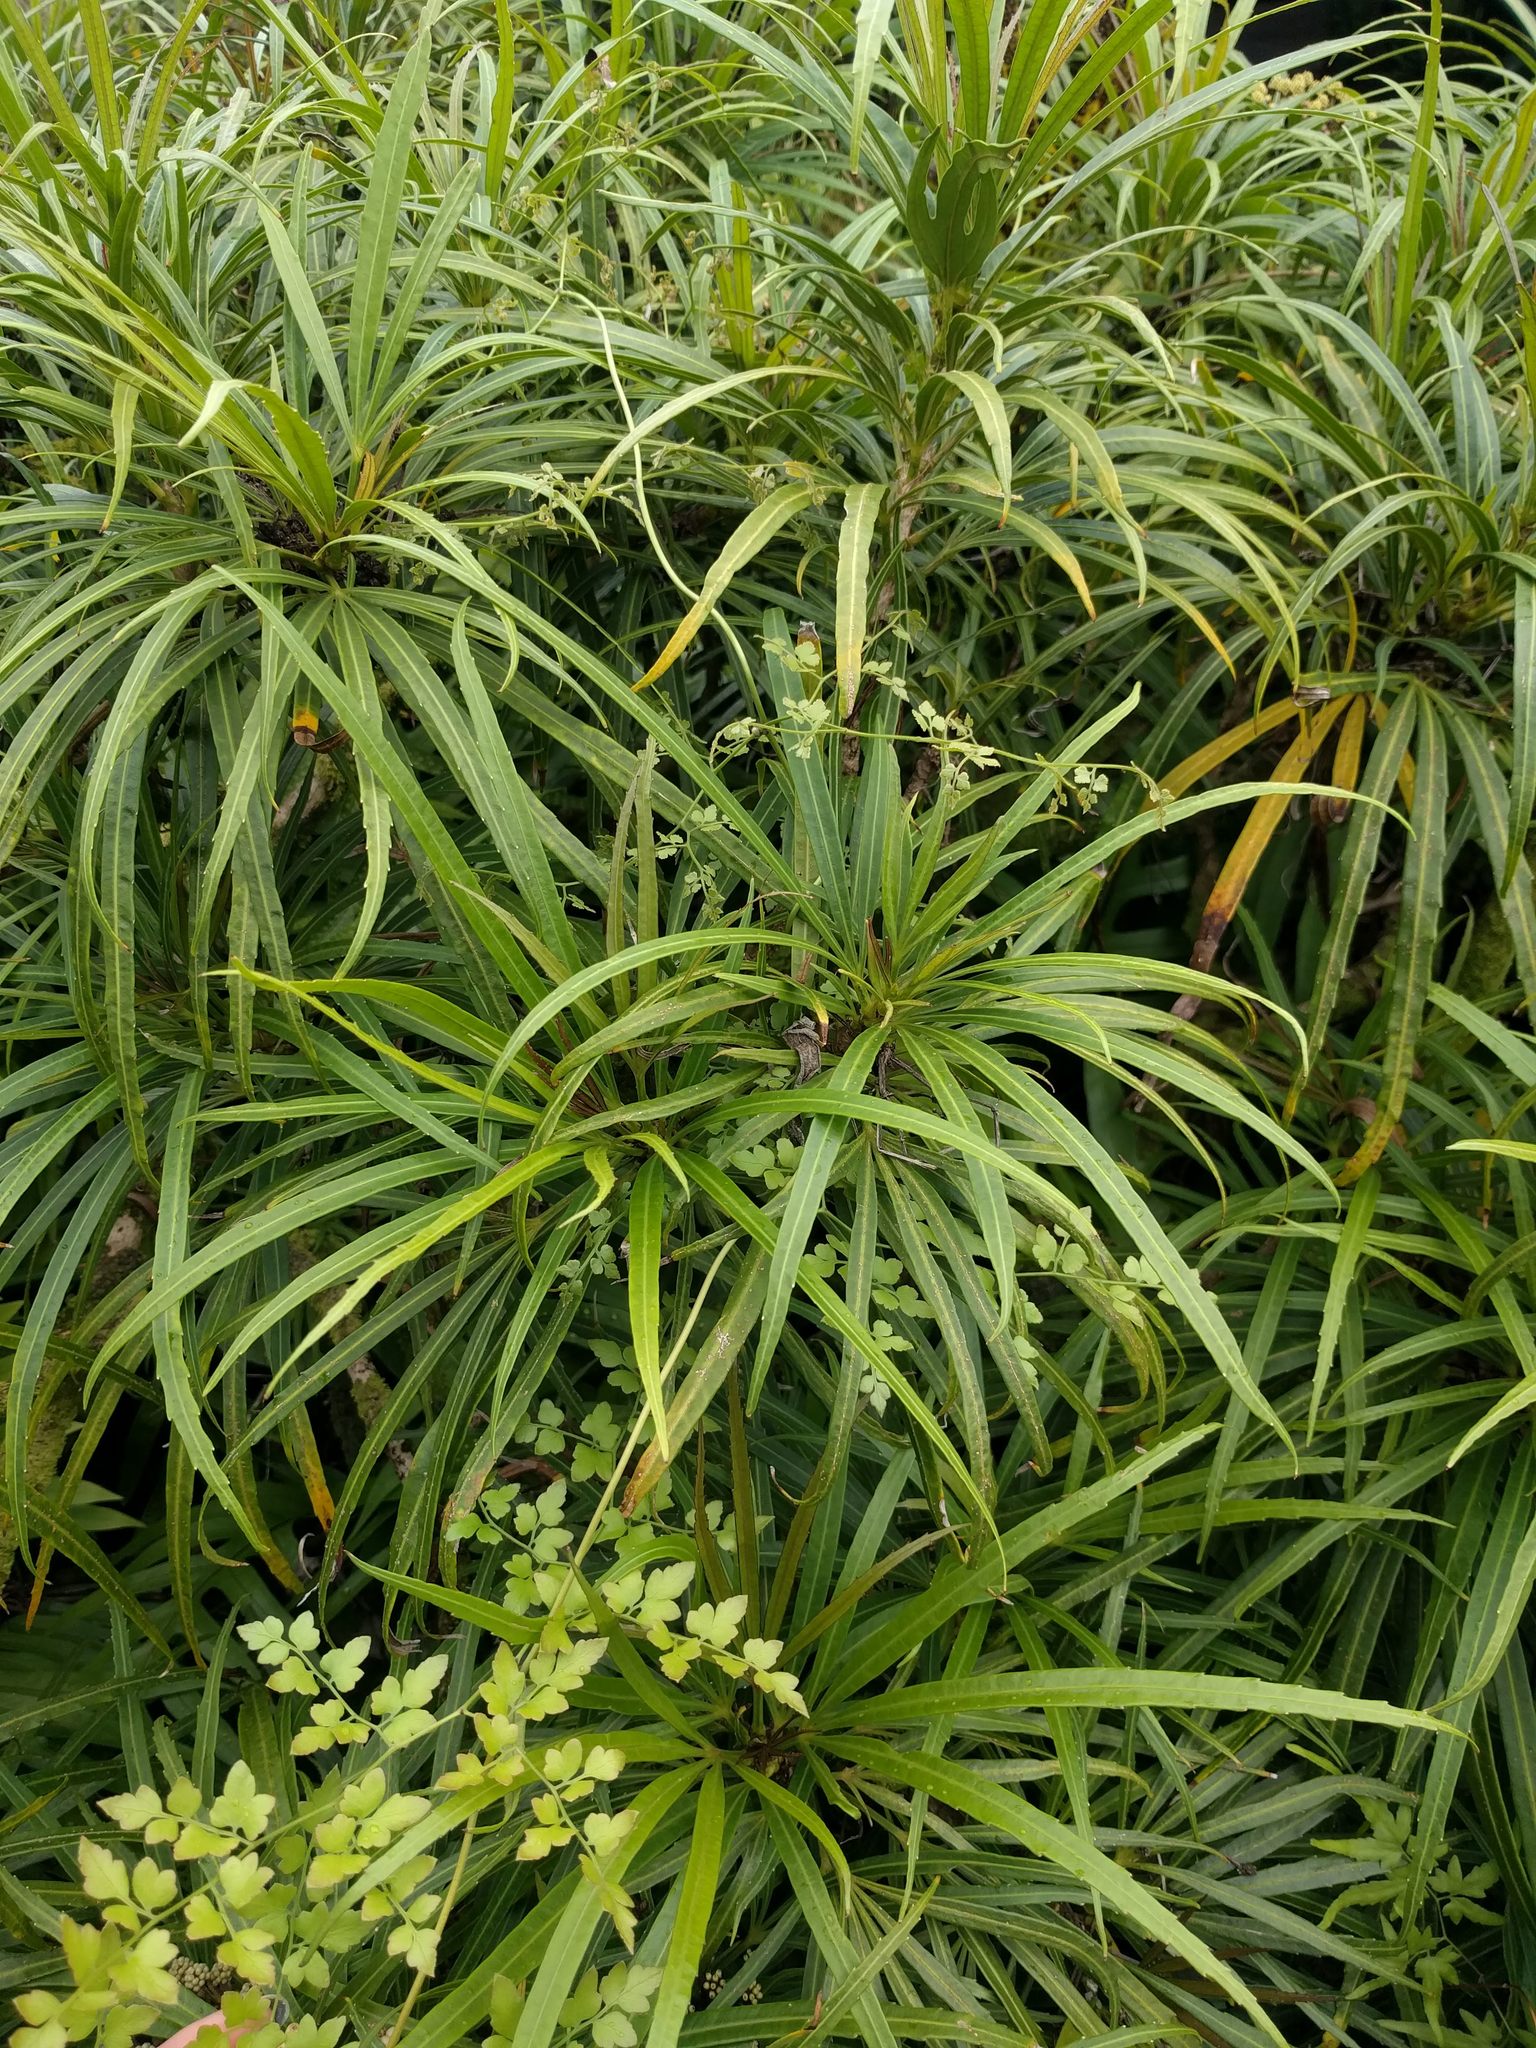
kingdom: Plantae
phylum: Tracheophyta
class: Polypodiopsida
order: Schizaeales
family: Lygodiaceae
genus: Lygodium
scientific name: Lygodium japonicum
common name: Japanese climbing fern
